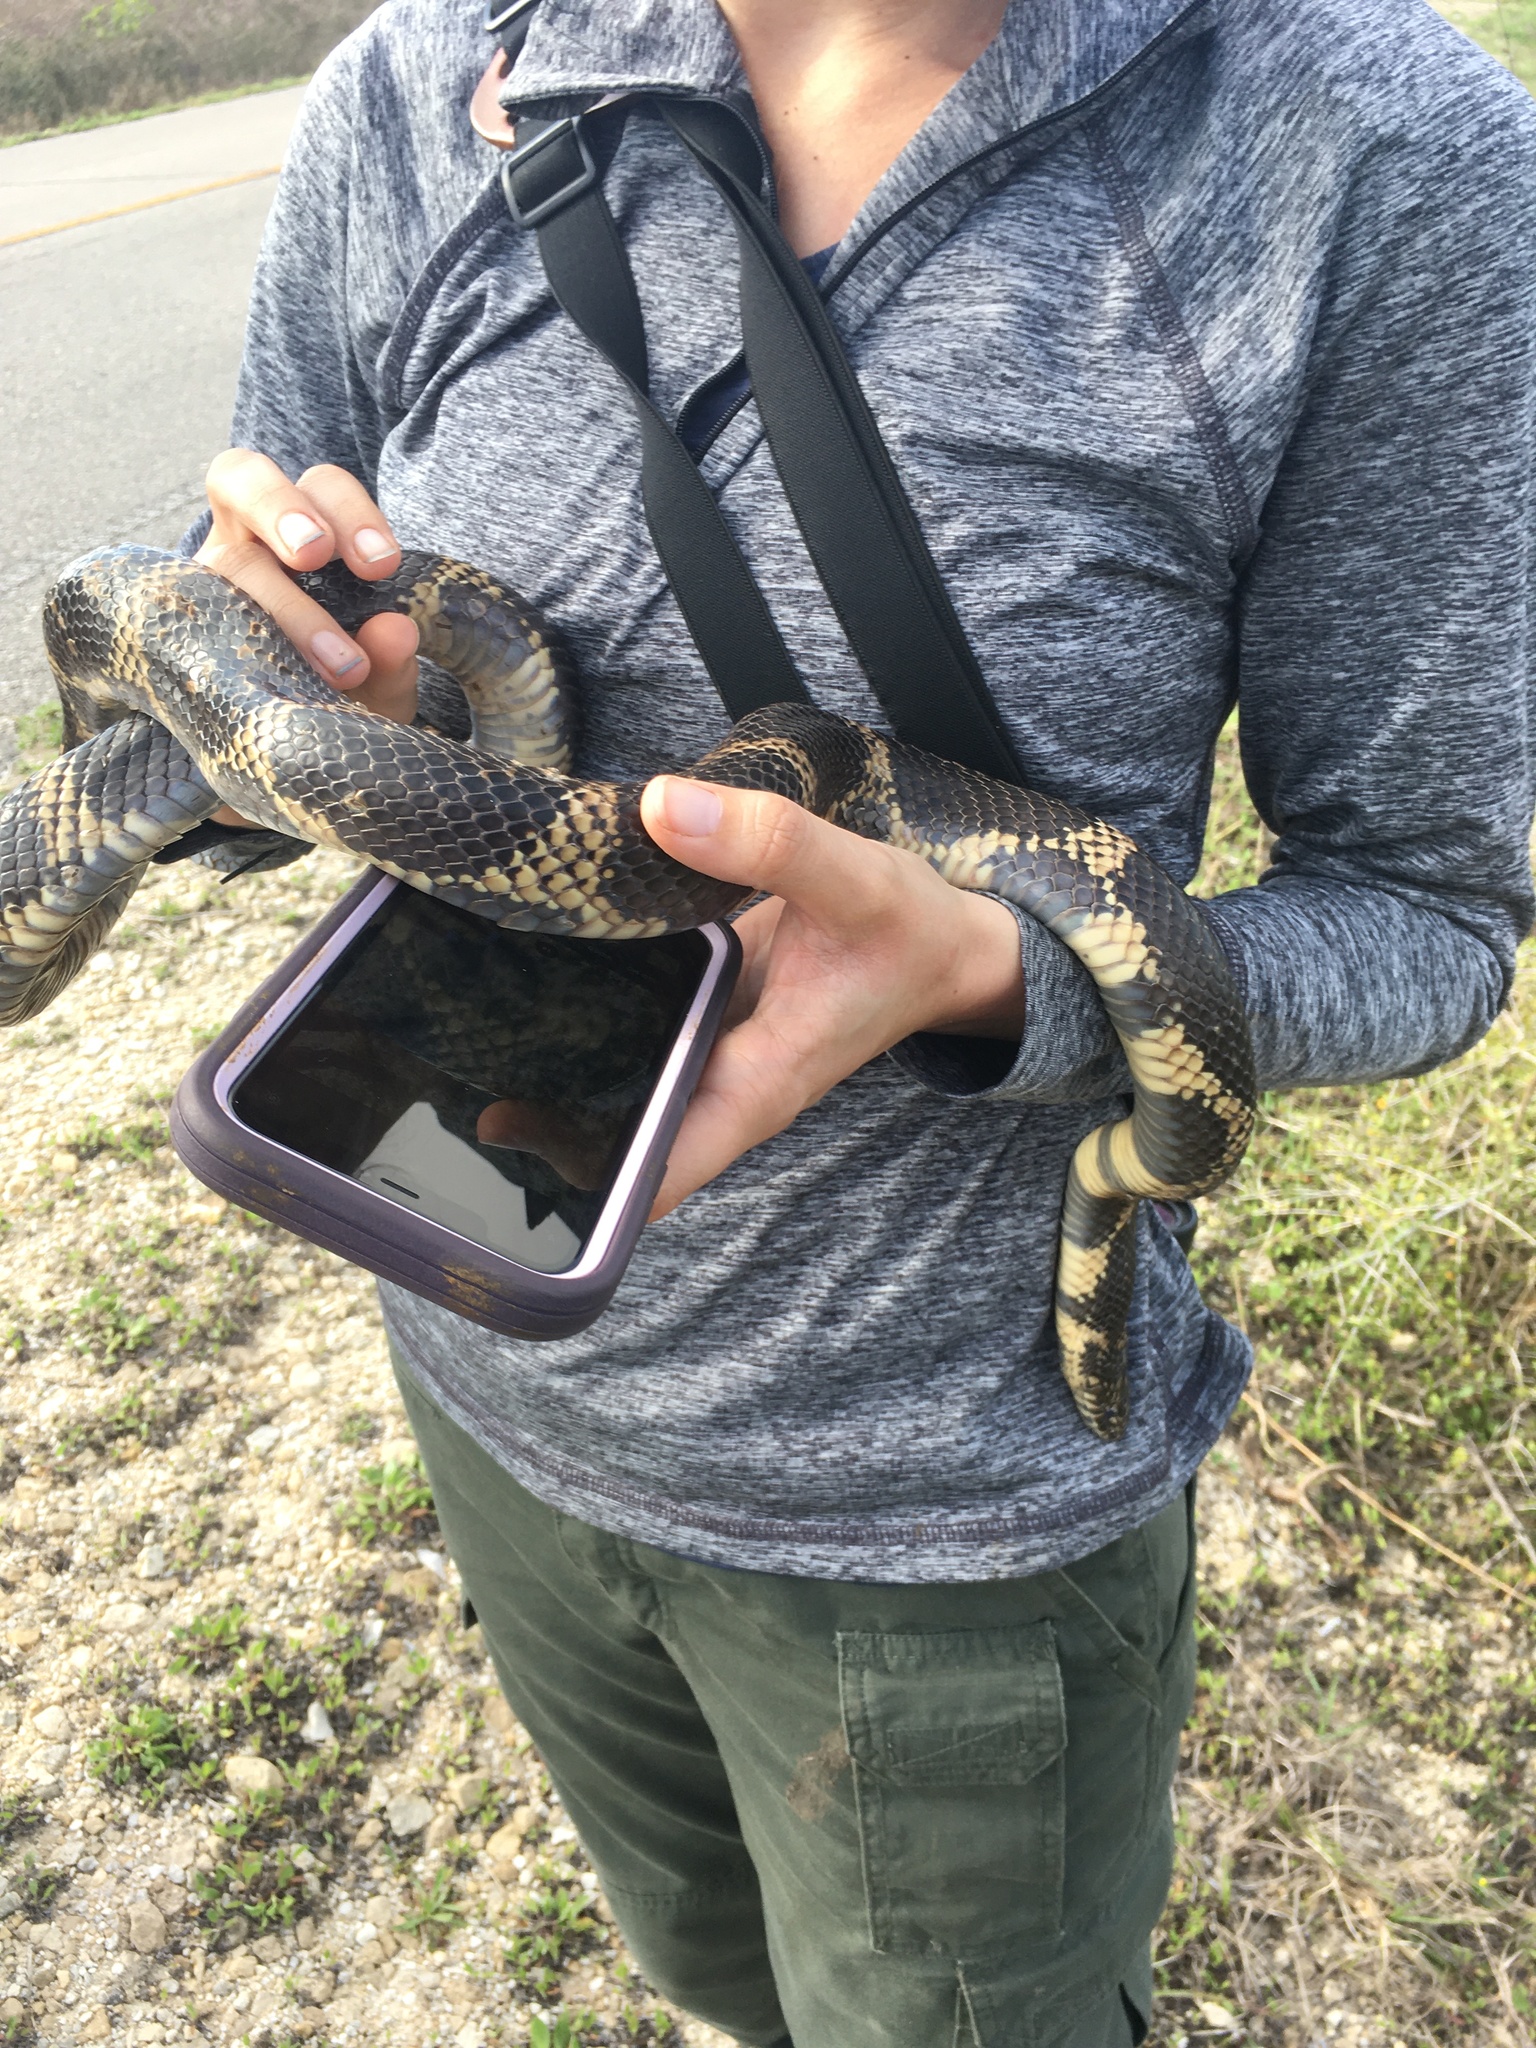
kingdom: Animalia
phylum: Chordata
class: Squamata
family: Colubridae
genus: Lampropeltis
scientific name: Lampropeltis getula
